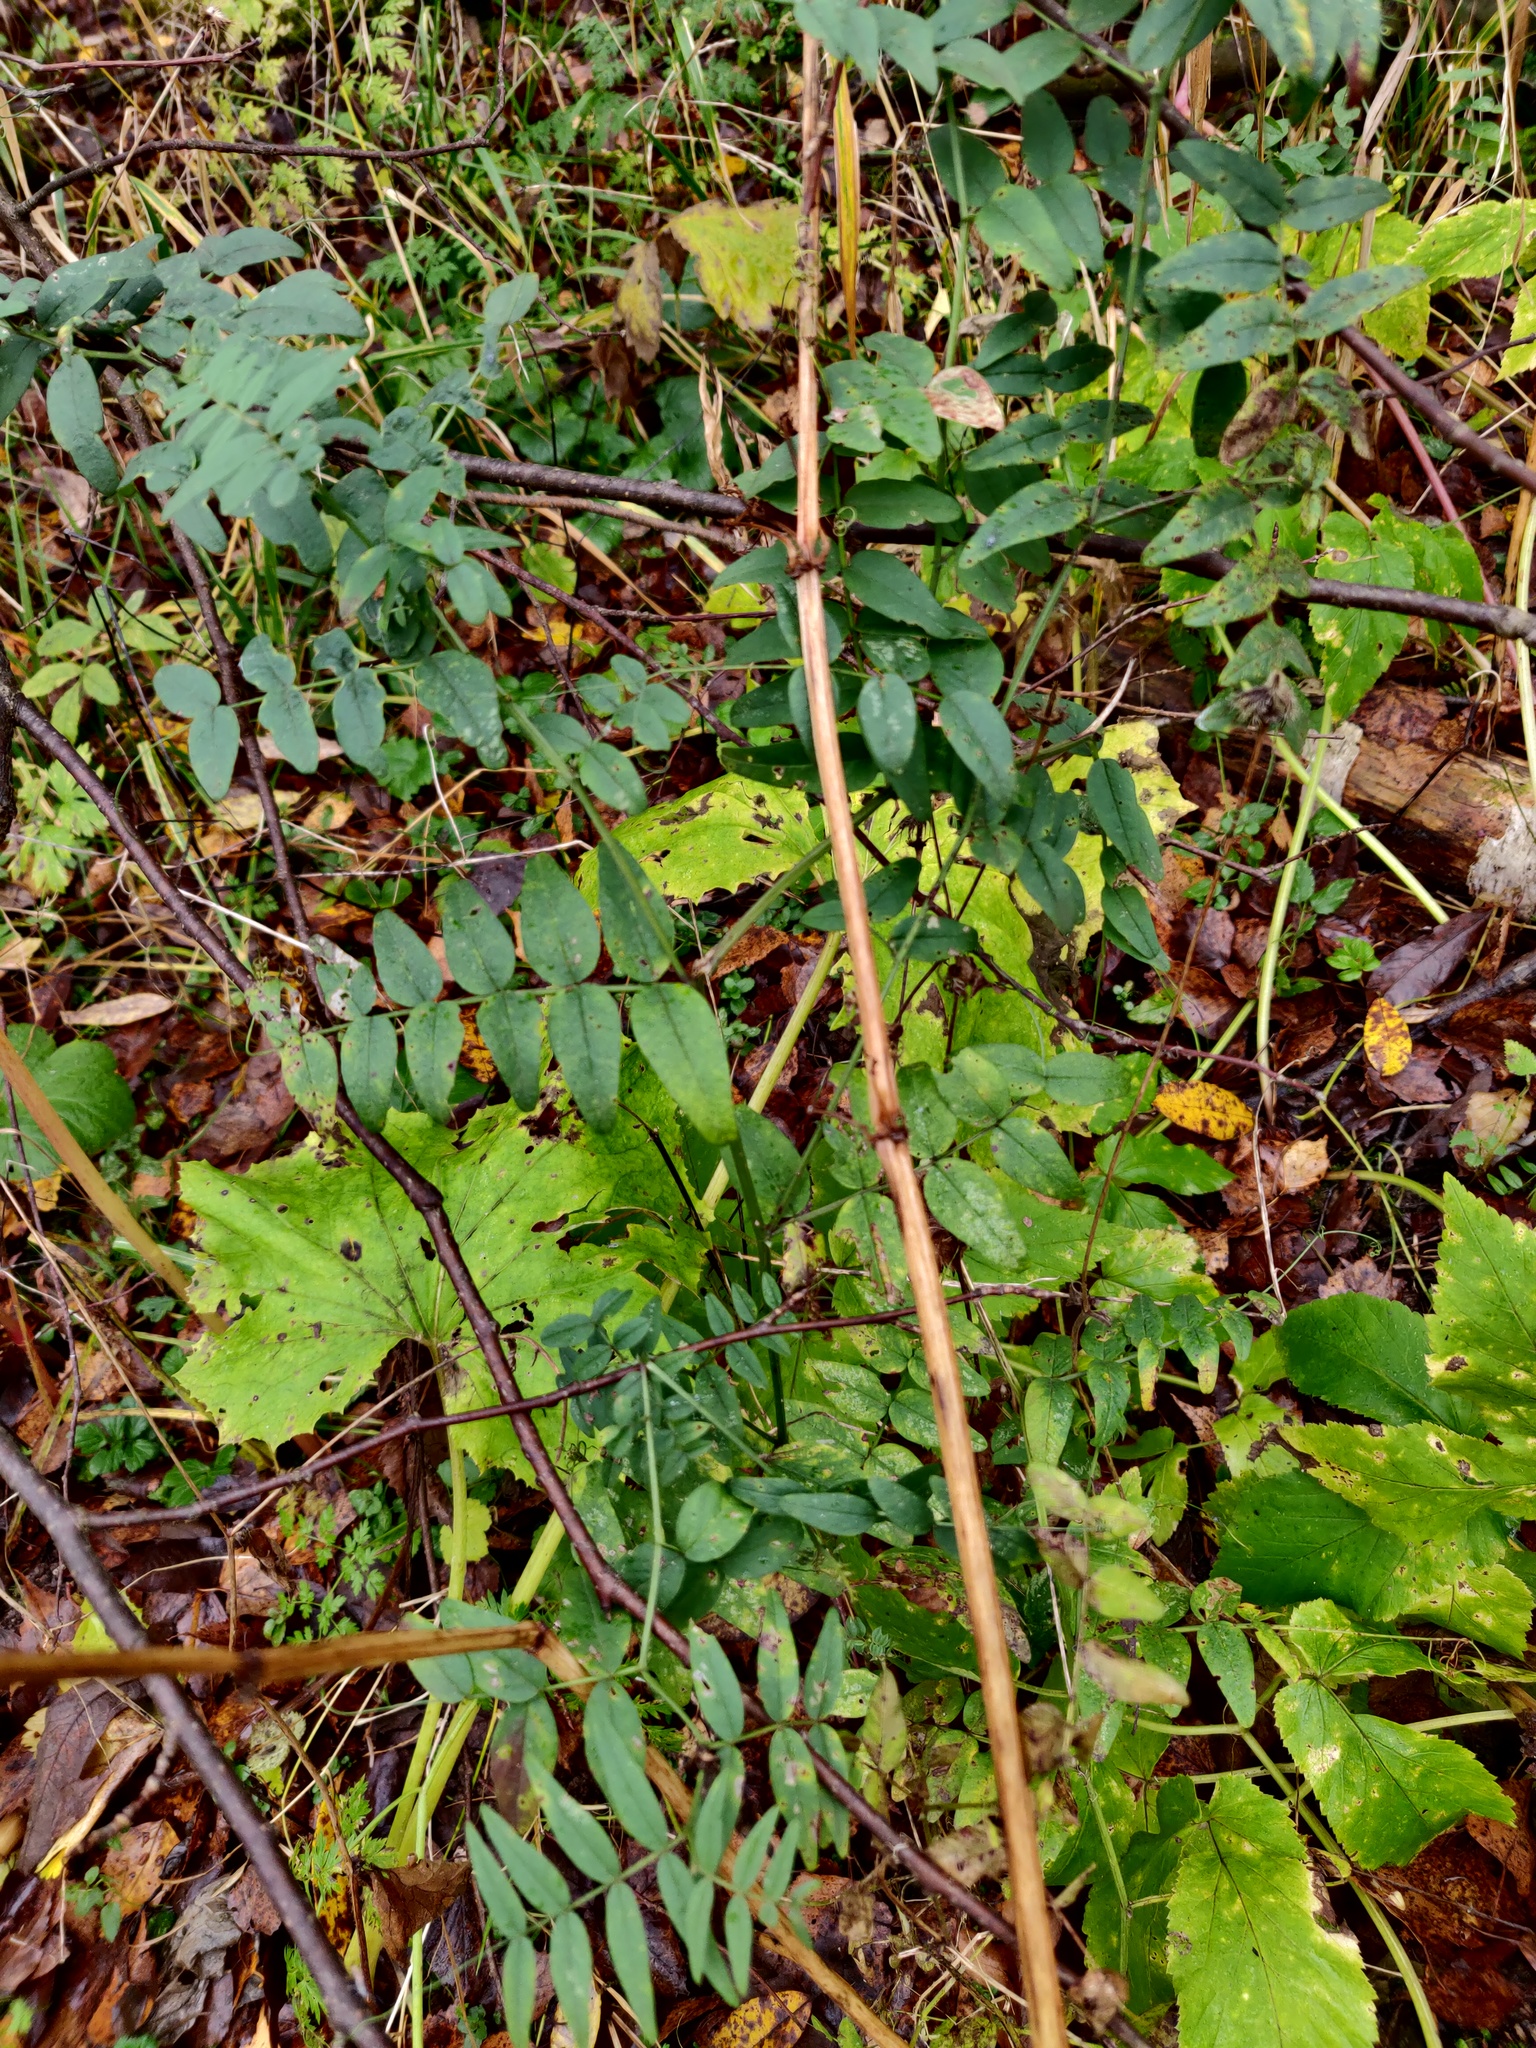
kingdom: Plantae
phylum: Tracheophyta
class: Magnoliopsida
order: Fabales
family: Fabaceae
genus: Vicia
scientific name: Vicia sepium
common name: Bush vetch
